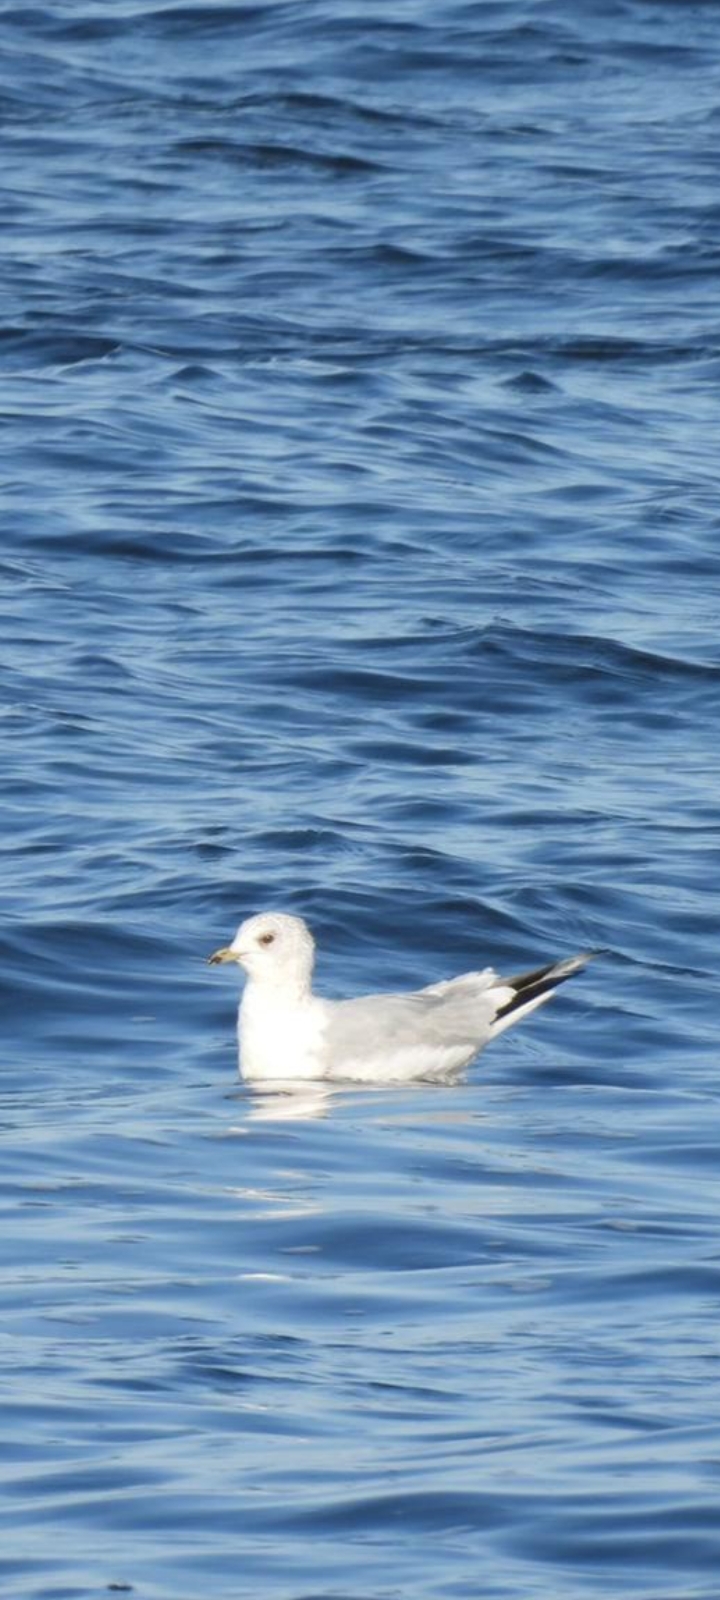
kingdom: Animalia
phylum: Chordata
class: Aves
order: Charadriiformes
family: Laridae
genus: Larus
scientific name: Larus canus
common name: Mew gull
